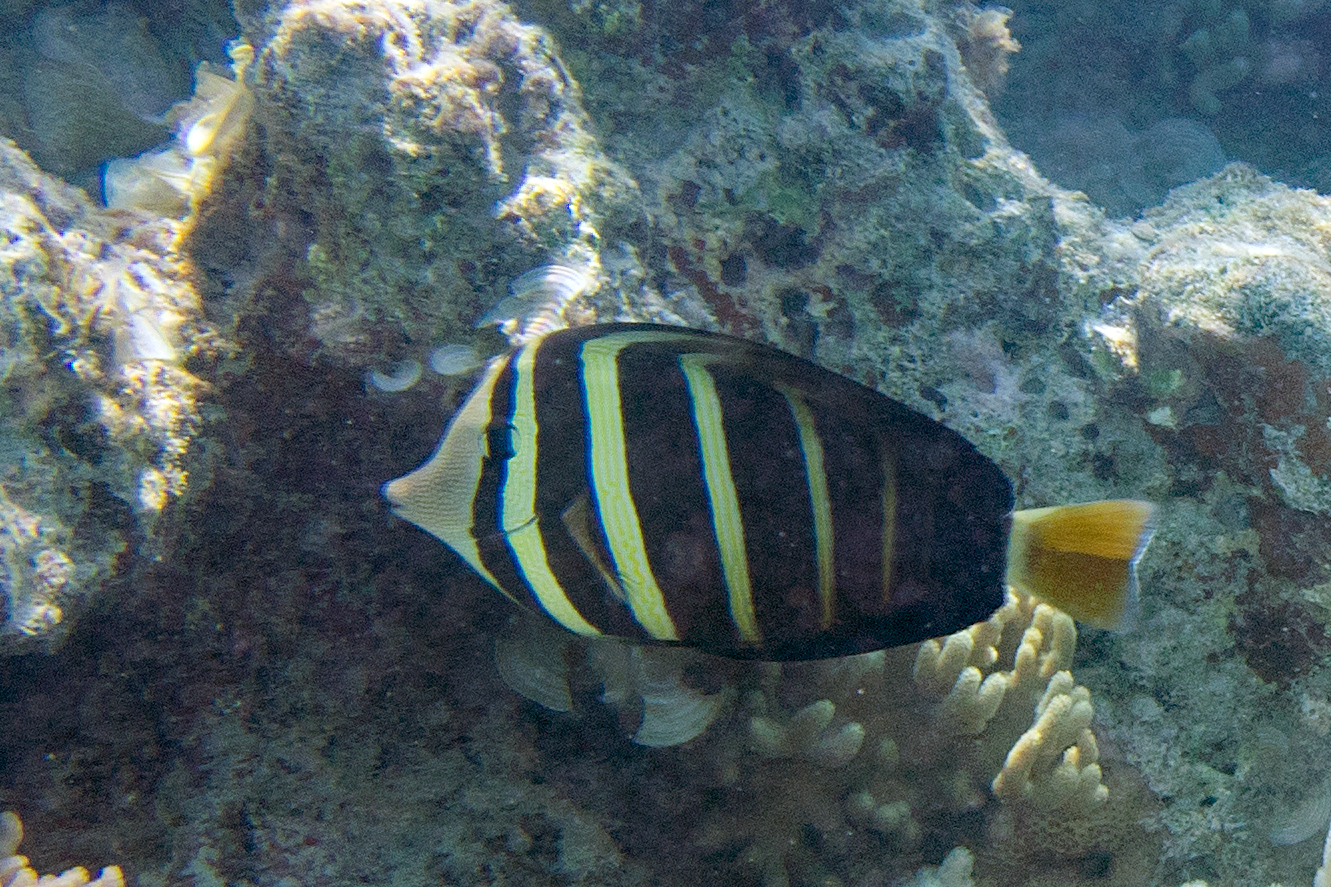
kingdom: Animalia
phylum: Chordata
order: Perciformes
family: Acanthuridae
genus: Zebrasoma
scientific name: Zebrasoma veliferum
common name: Sailfin surgeonfish
